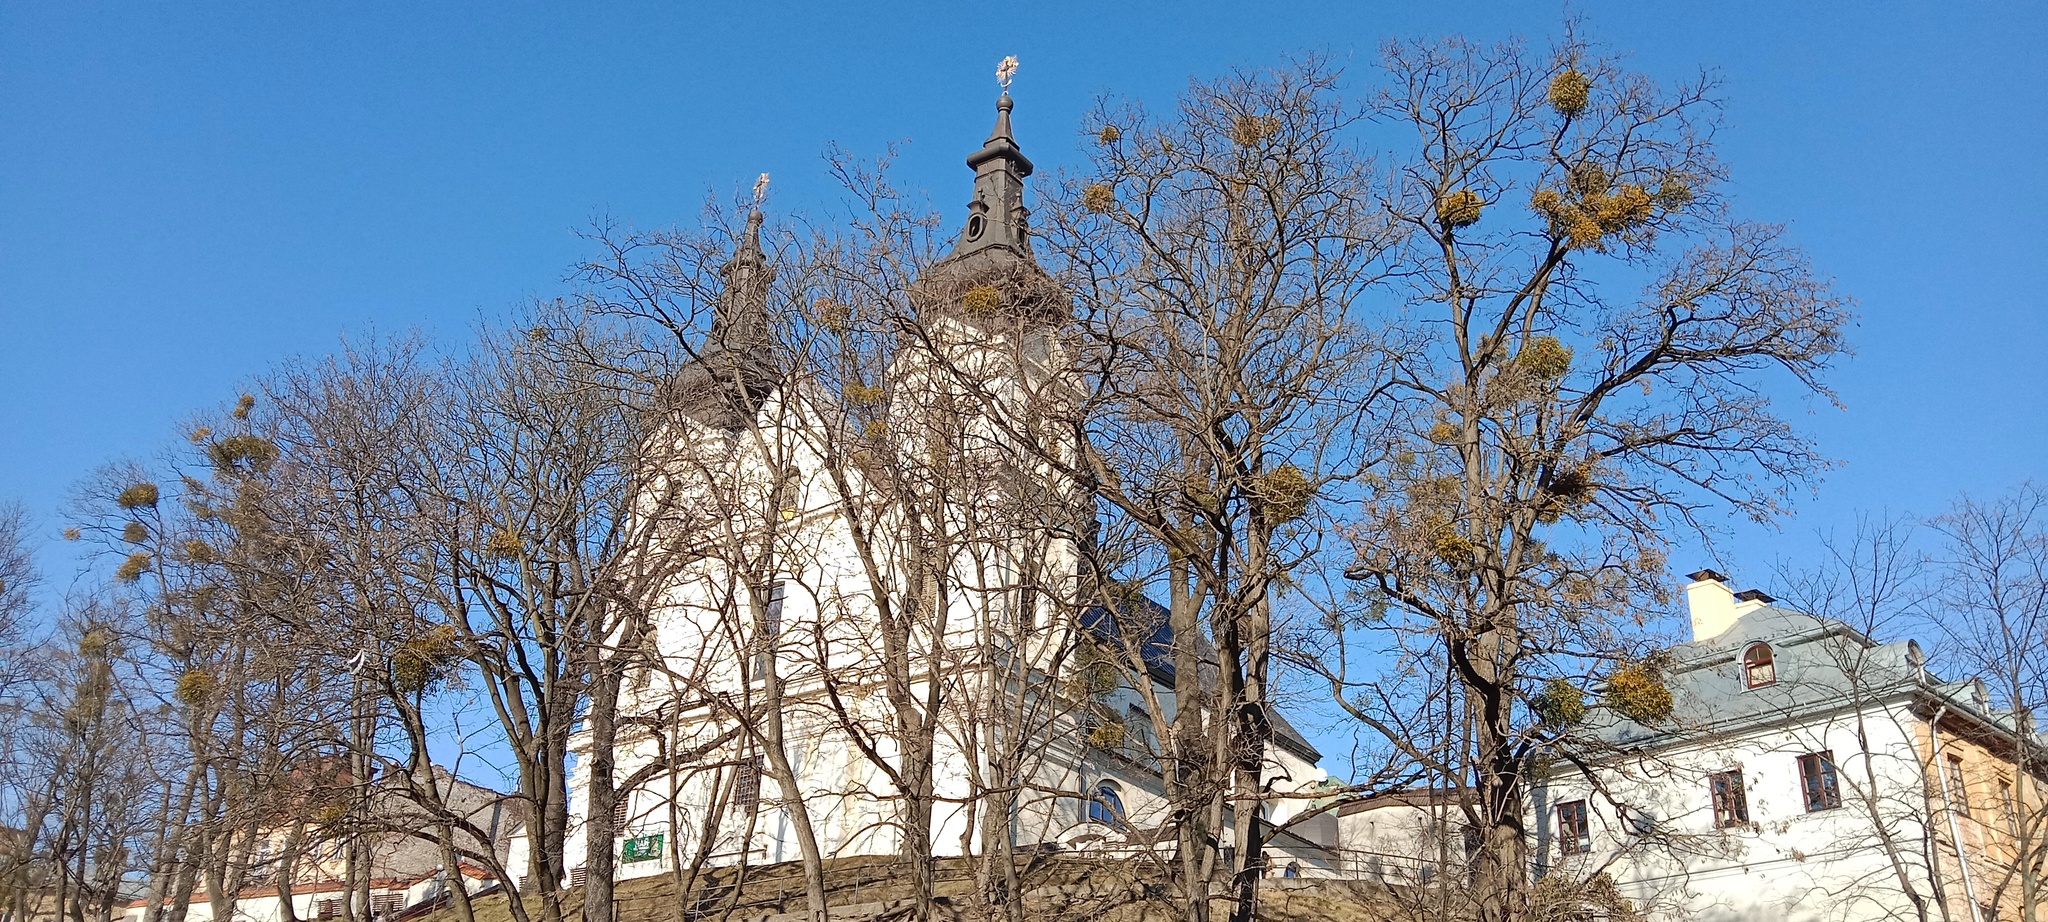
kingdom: Plantae
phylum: Tracheophyta
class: Magnoliopsida
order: Santalales
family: Viscaceae
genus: Viscum
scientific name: Viscum album
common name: Mistletoe
